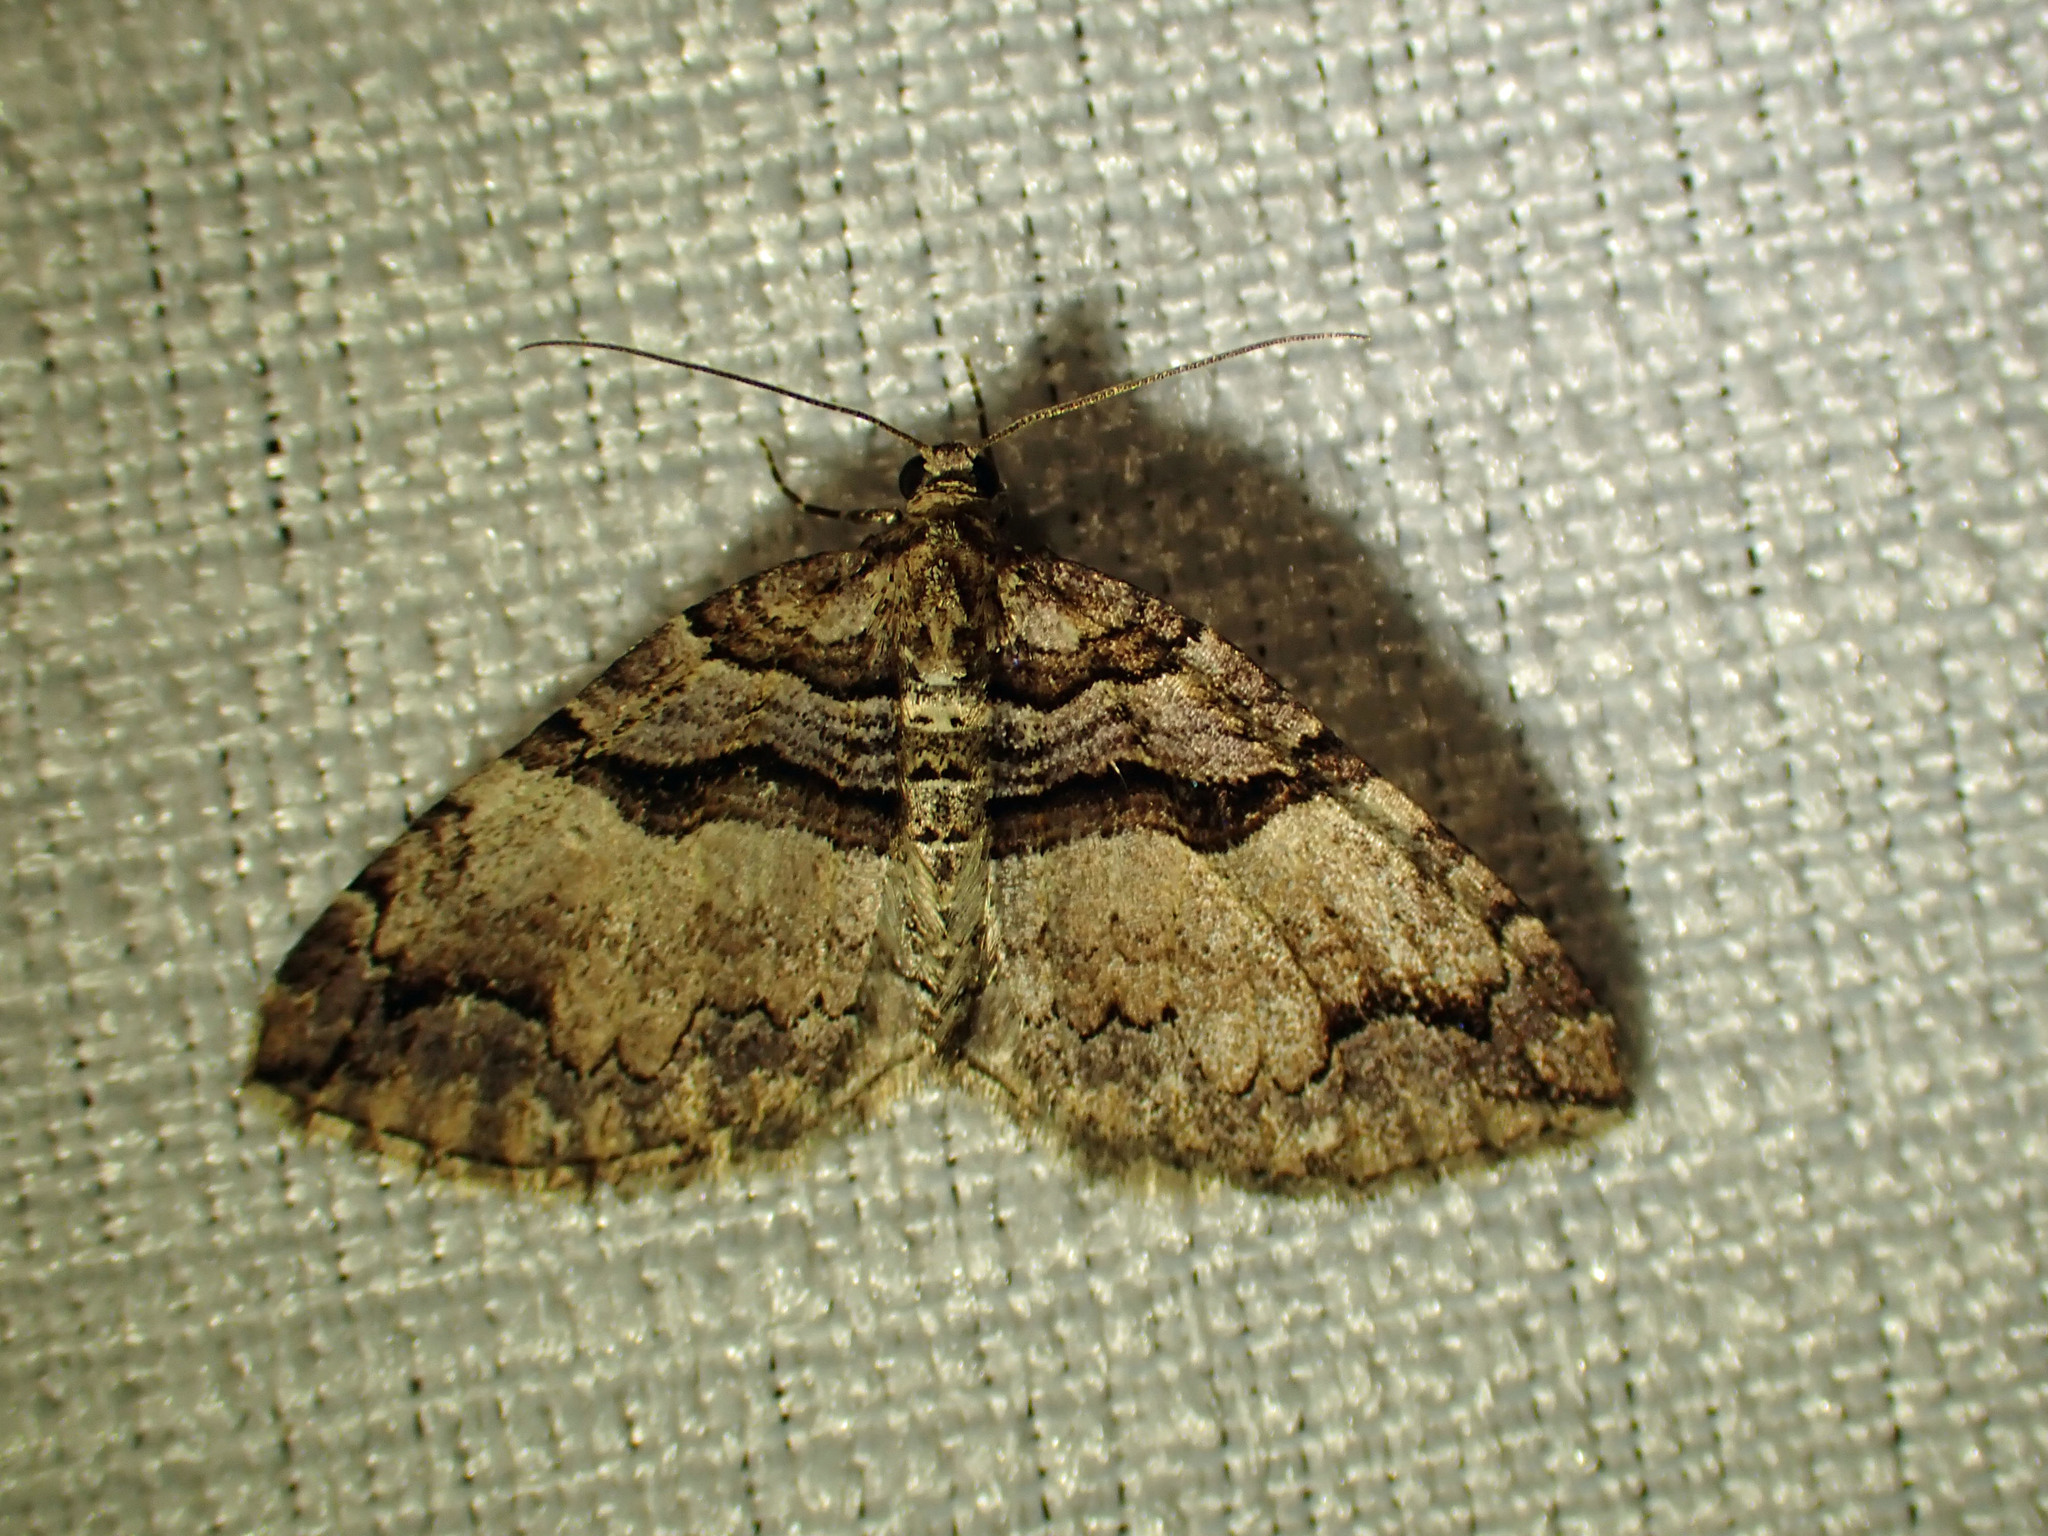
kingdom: Animalia
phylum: Arthropoda
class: Insecta
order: Lepidoptera
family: Geometridae
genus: Anticlea
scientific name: Anticlea vasiliata
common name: Variable carpet
